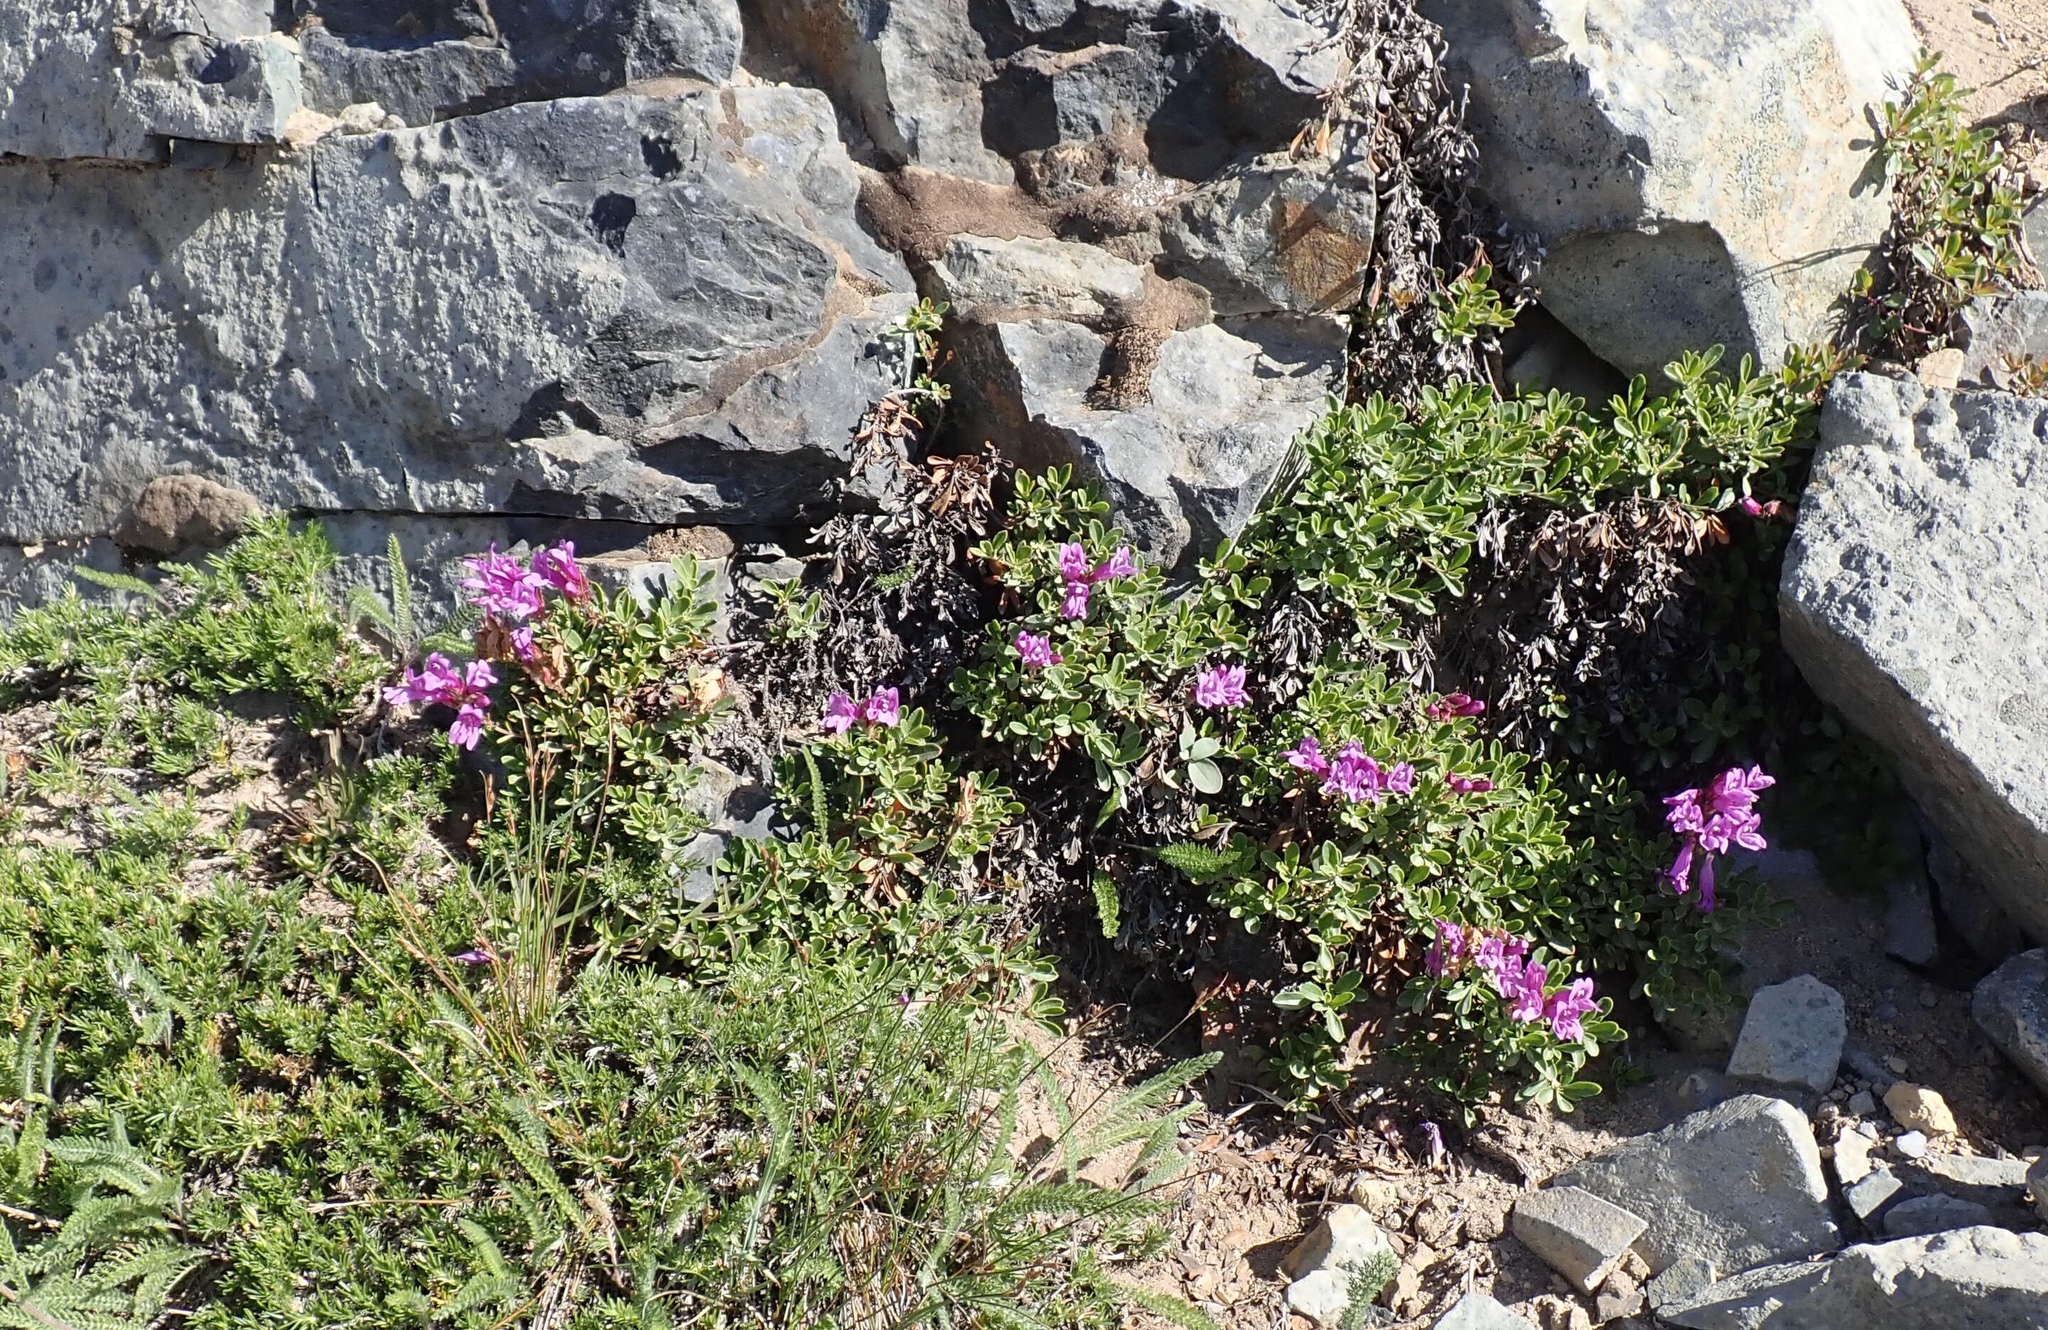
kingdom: Plantae
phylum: Tracheophyta
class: Magnoliopsida
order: Lamiales
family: Plantaginaceae
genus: Penstemon
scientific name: Penstemon davidsonii
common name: Davidson's penstemon
